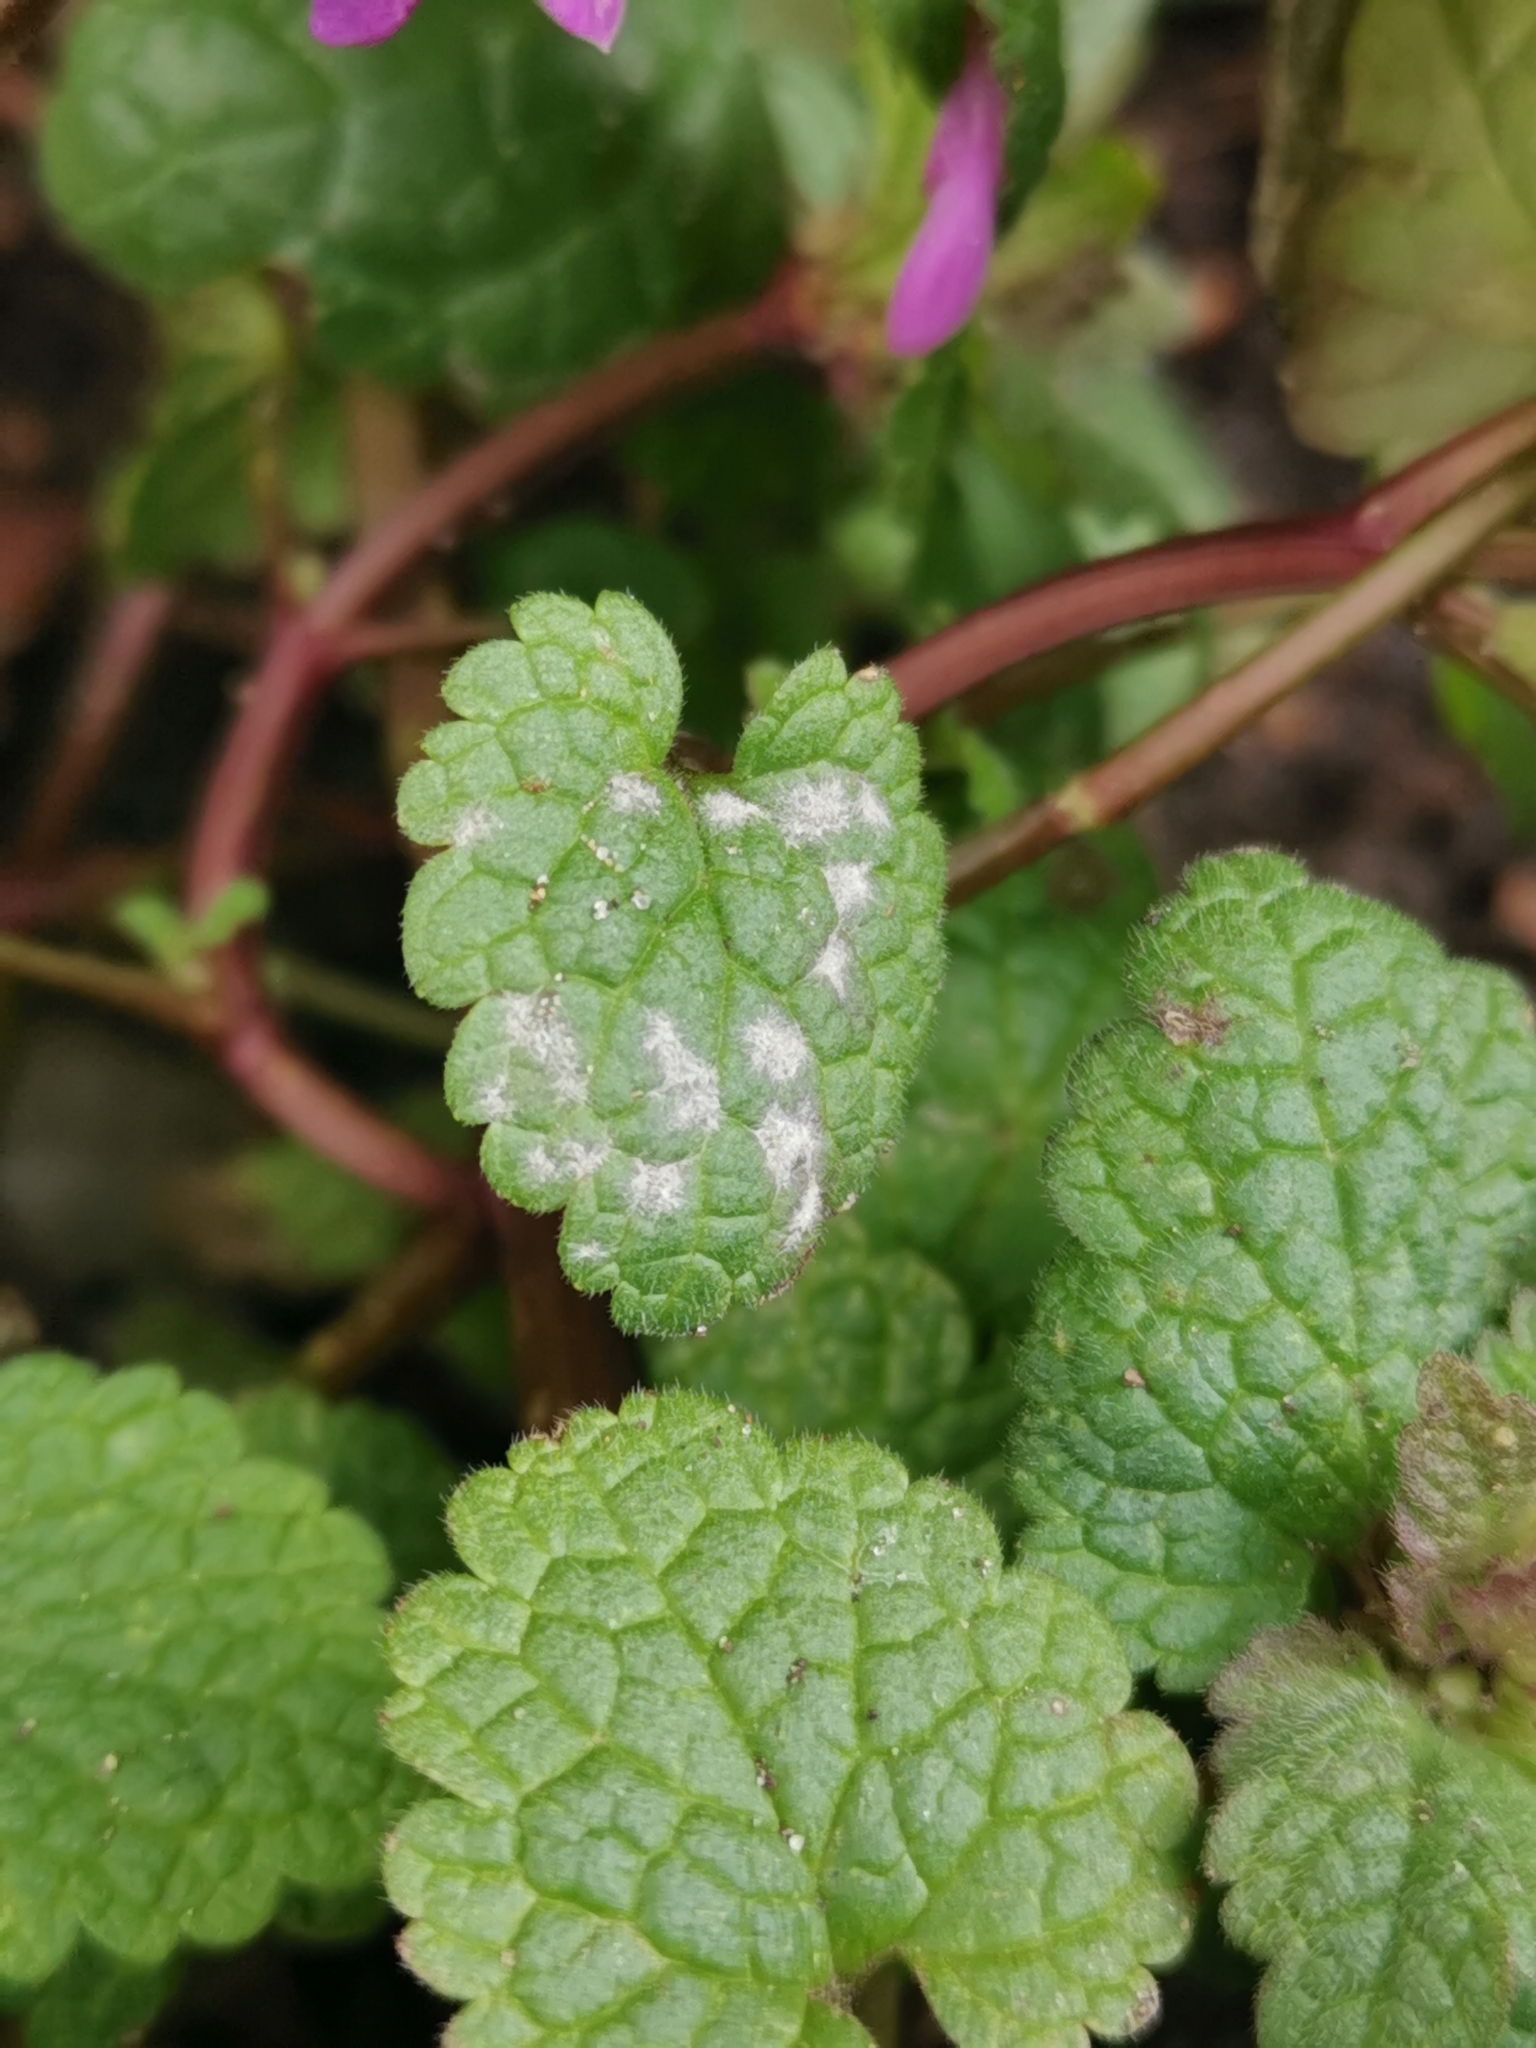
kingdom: Fungi
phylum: Ascomycota
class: Leotiomycetes
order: Helotiales
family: Erysiphaceae
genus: Neoerysiphe
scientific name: Neoerysiphe galeopsidis
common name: Mint mildew
